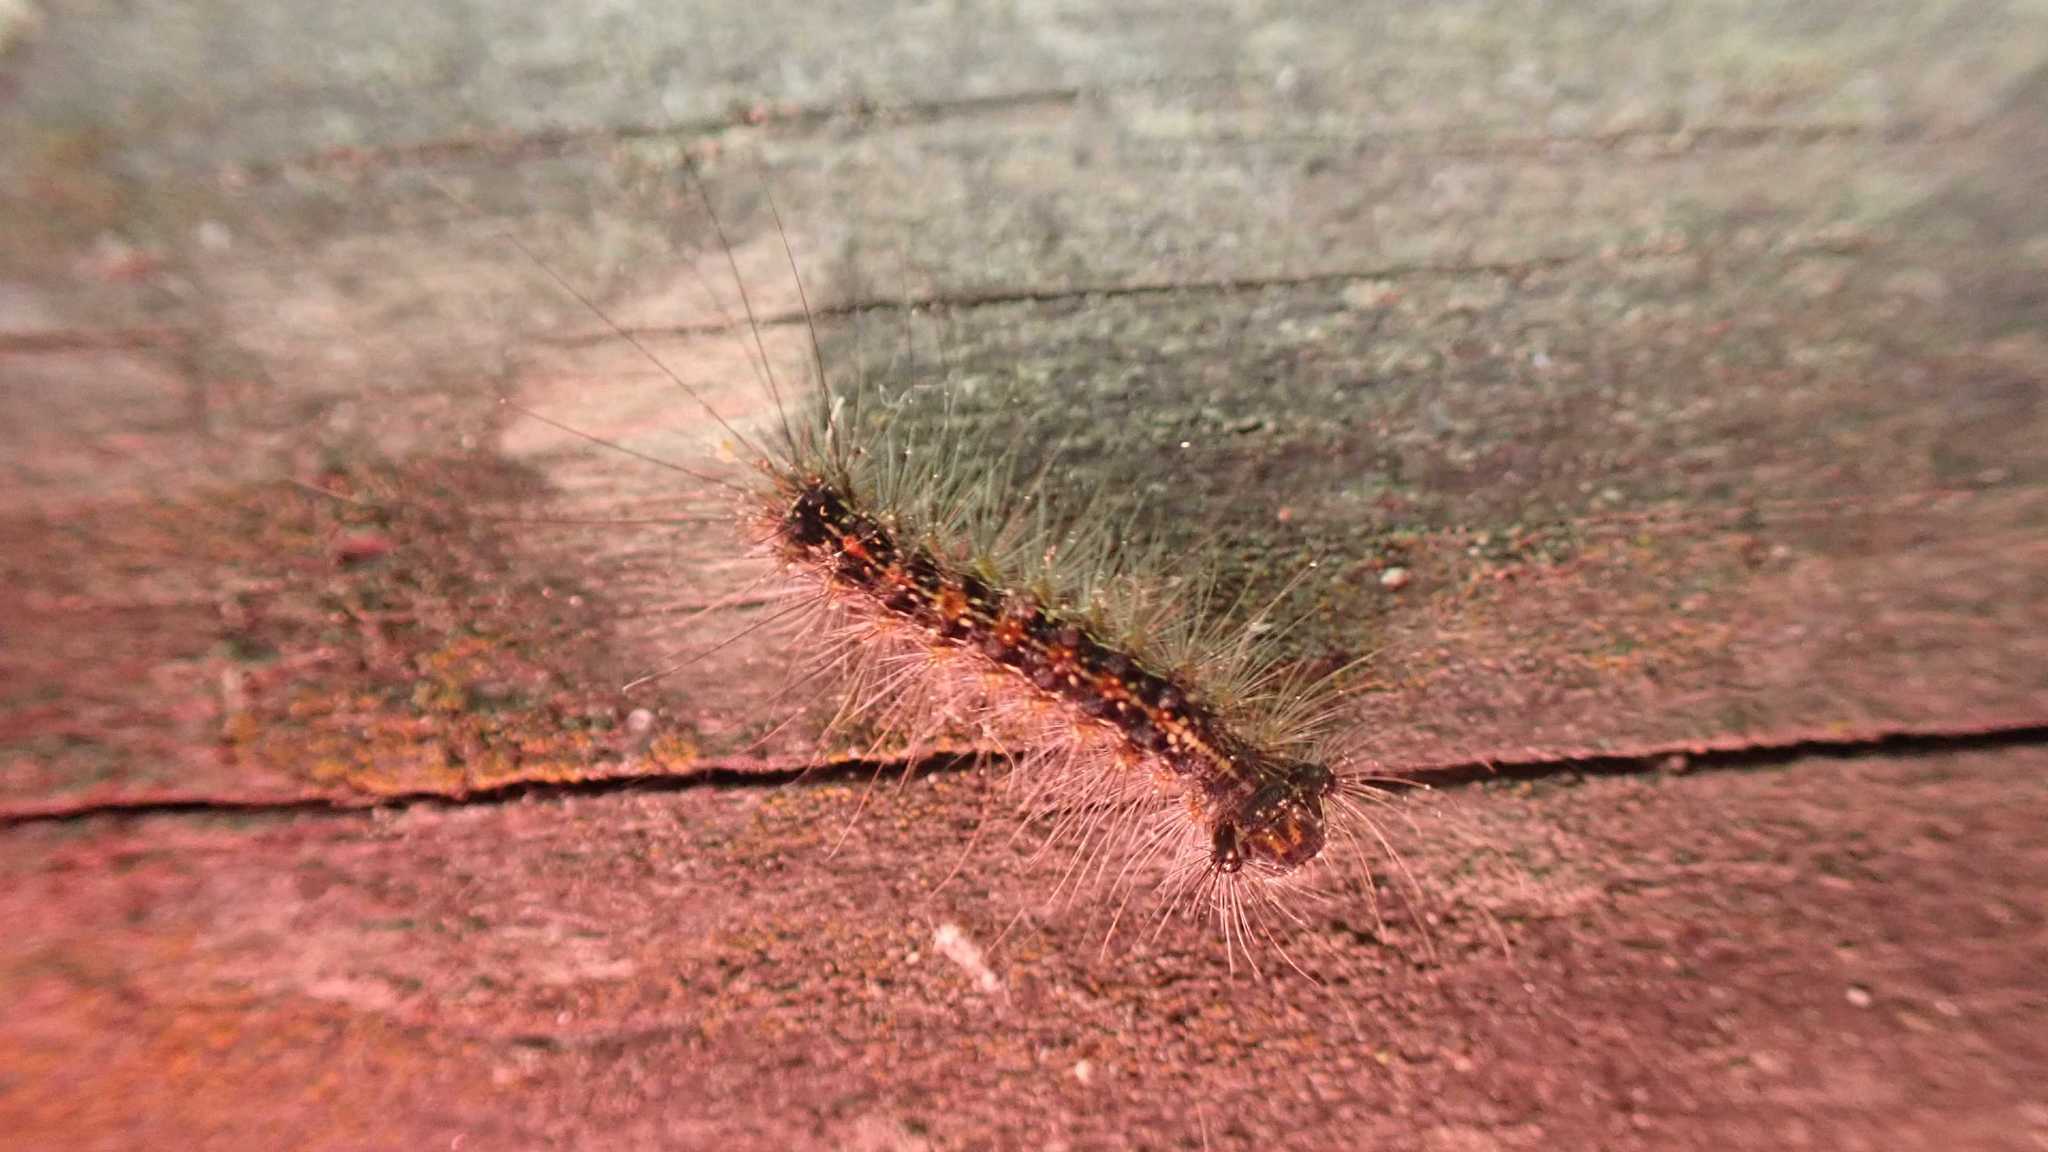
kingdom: Animalia
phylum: Arthropoda
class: Insecta
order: Lepidoptera
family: Erebidae
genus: Lymantria
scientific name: Lymantria dispar
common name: Gypsy moth
